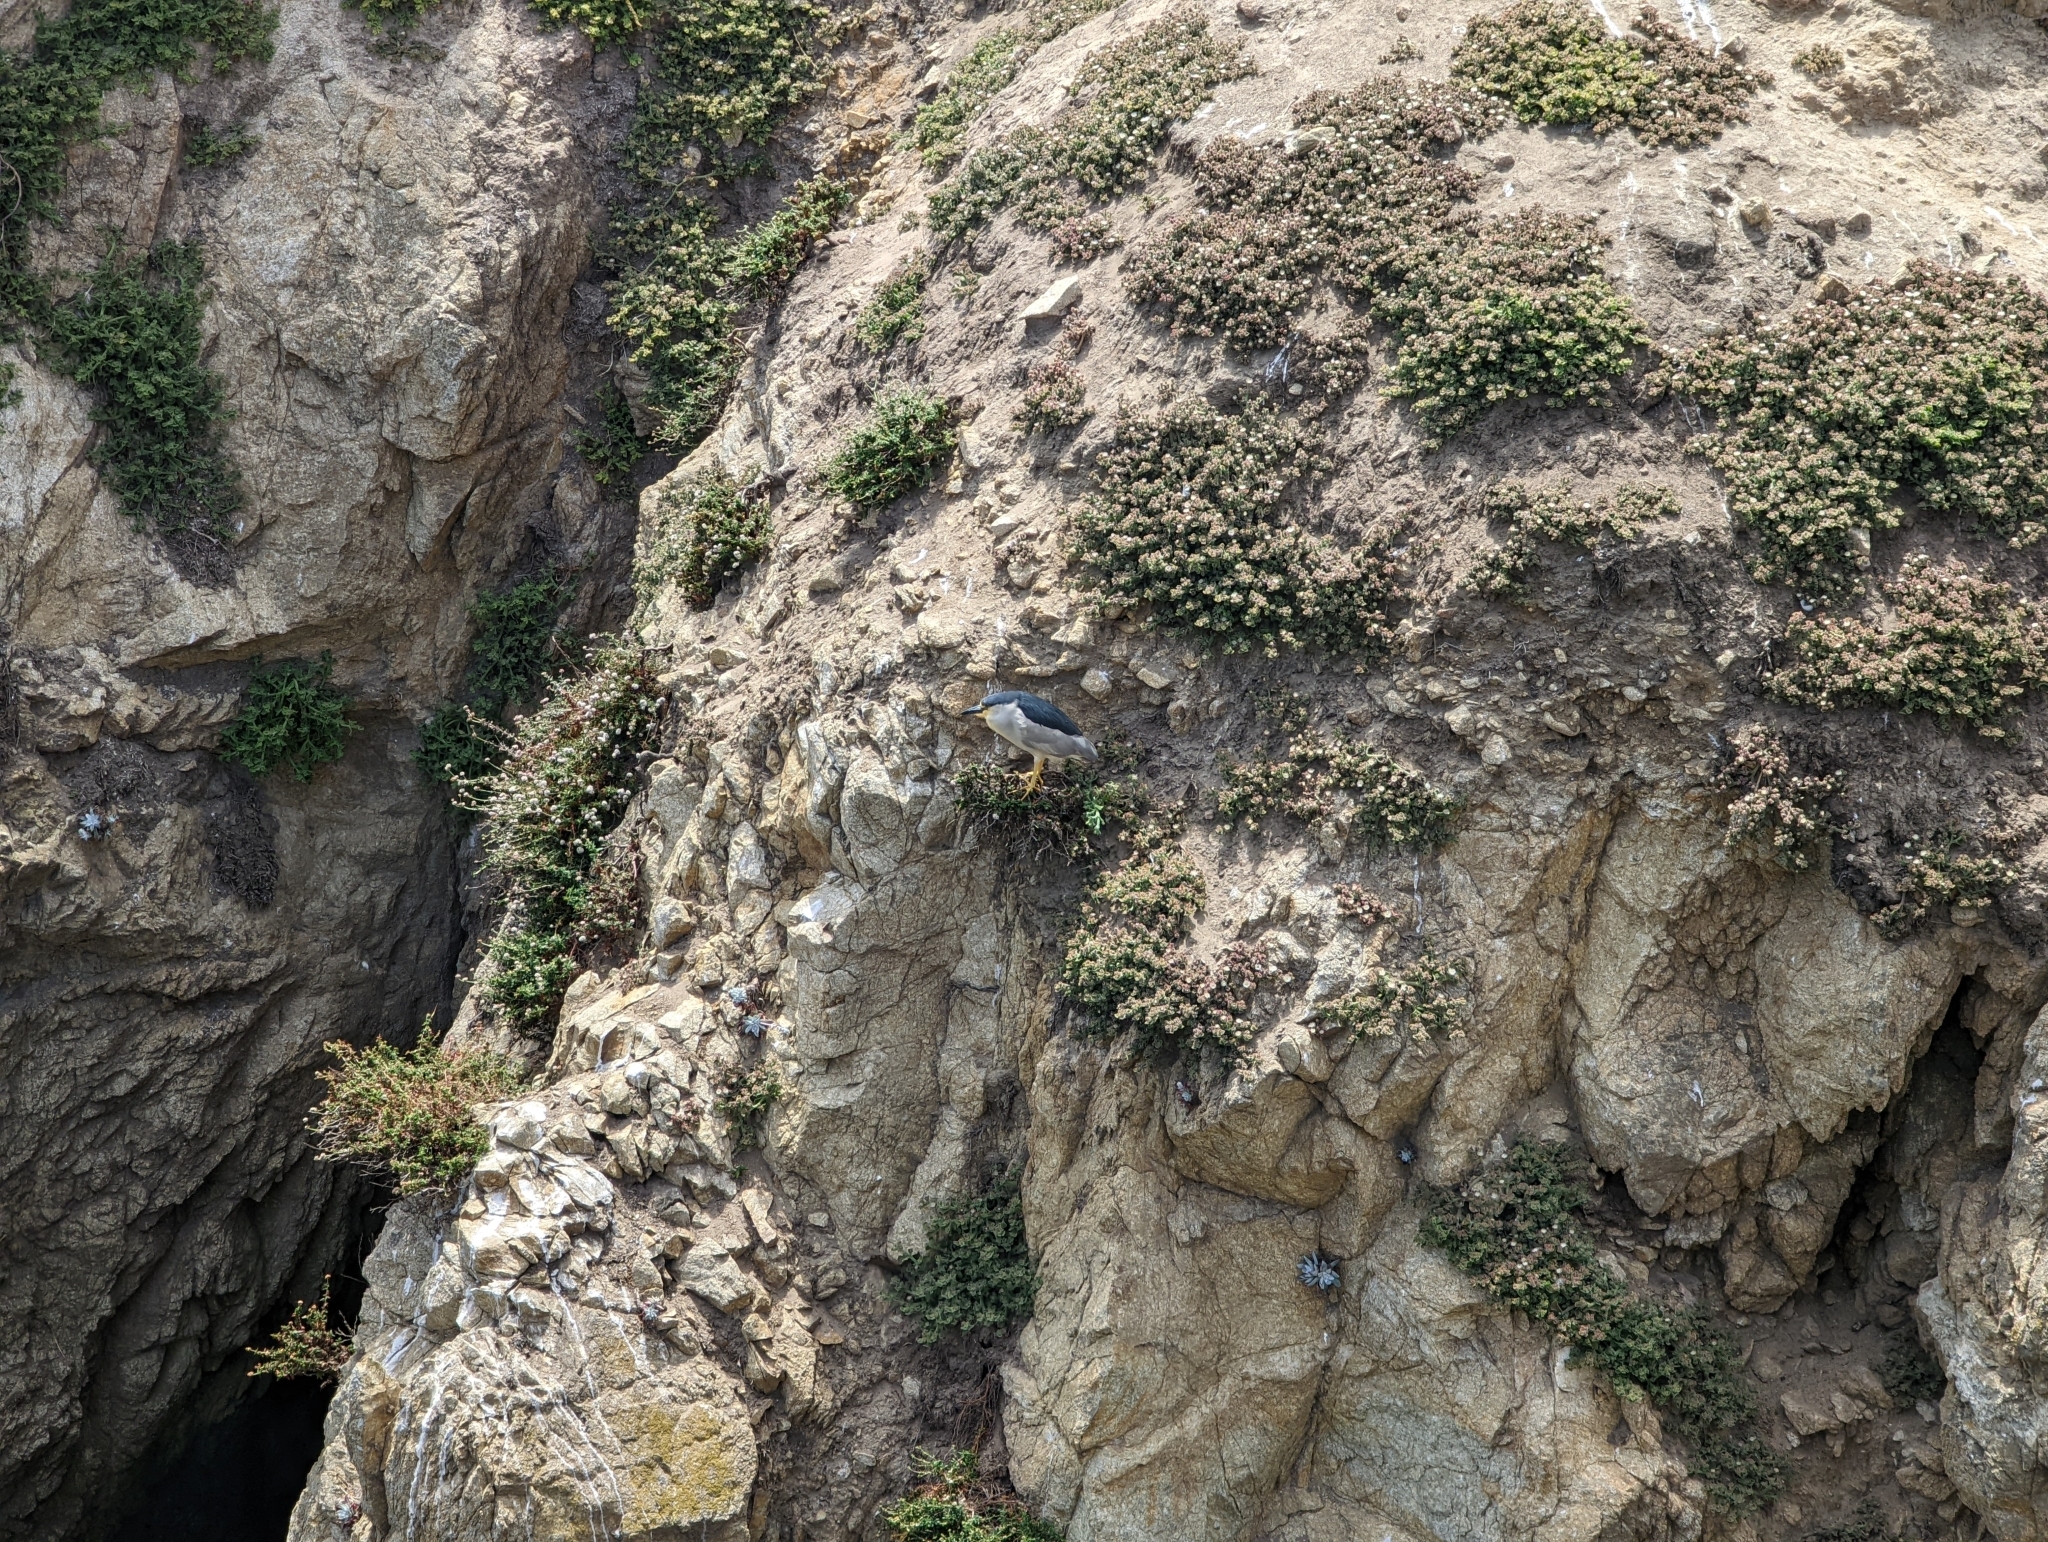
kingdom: Animalia
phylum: Chordata
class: Aves
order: Pelecaniformes
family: Ardeidae
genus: Nycticorax
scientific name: Nycticorax nycticorax
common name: Black-crowned night heron
